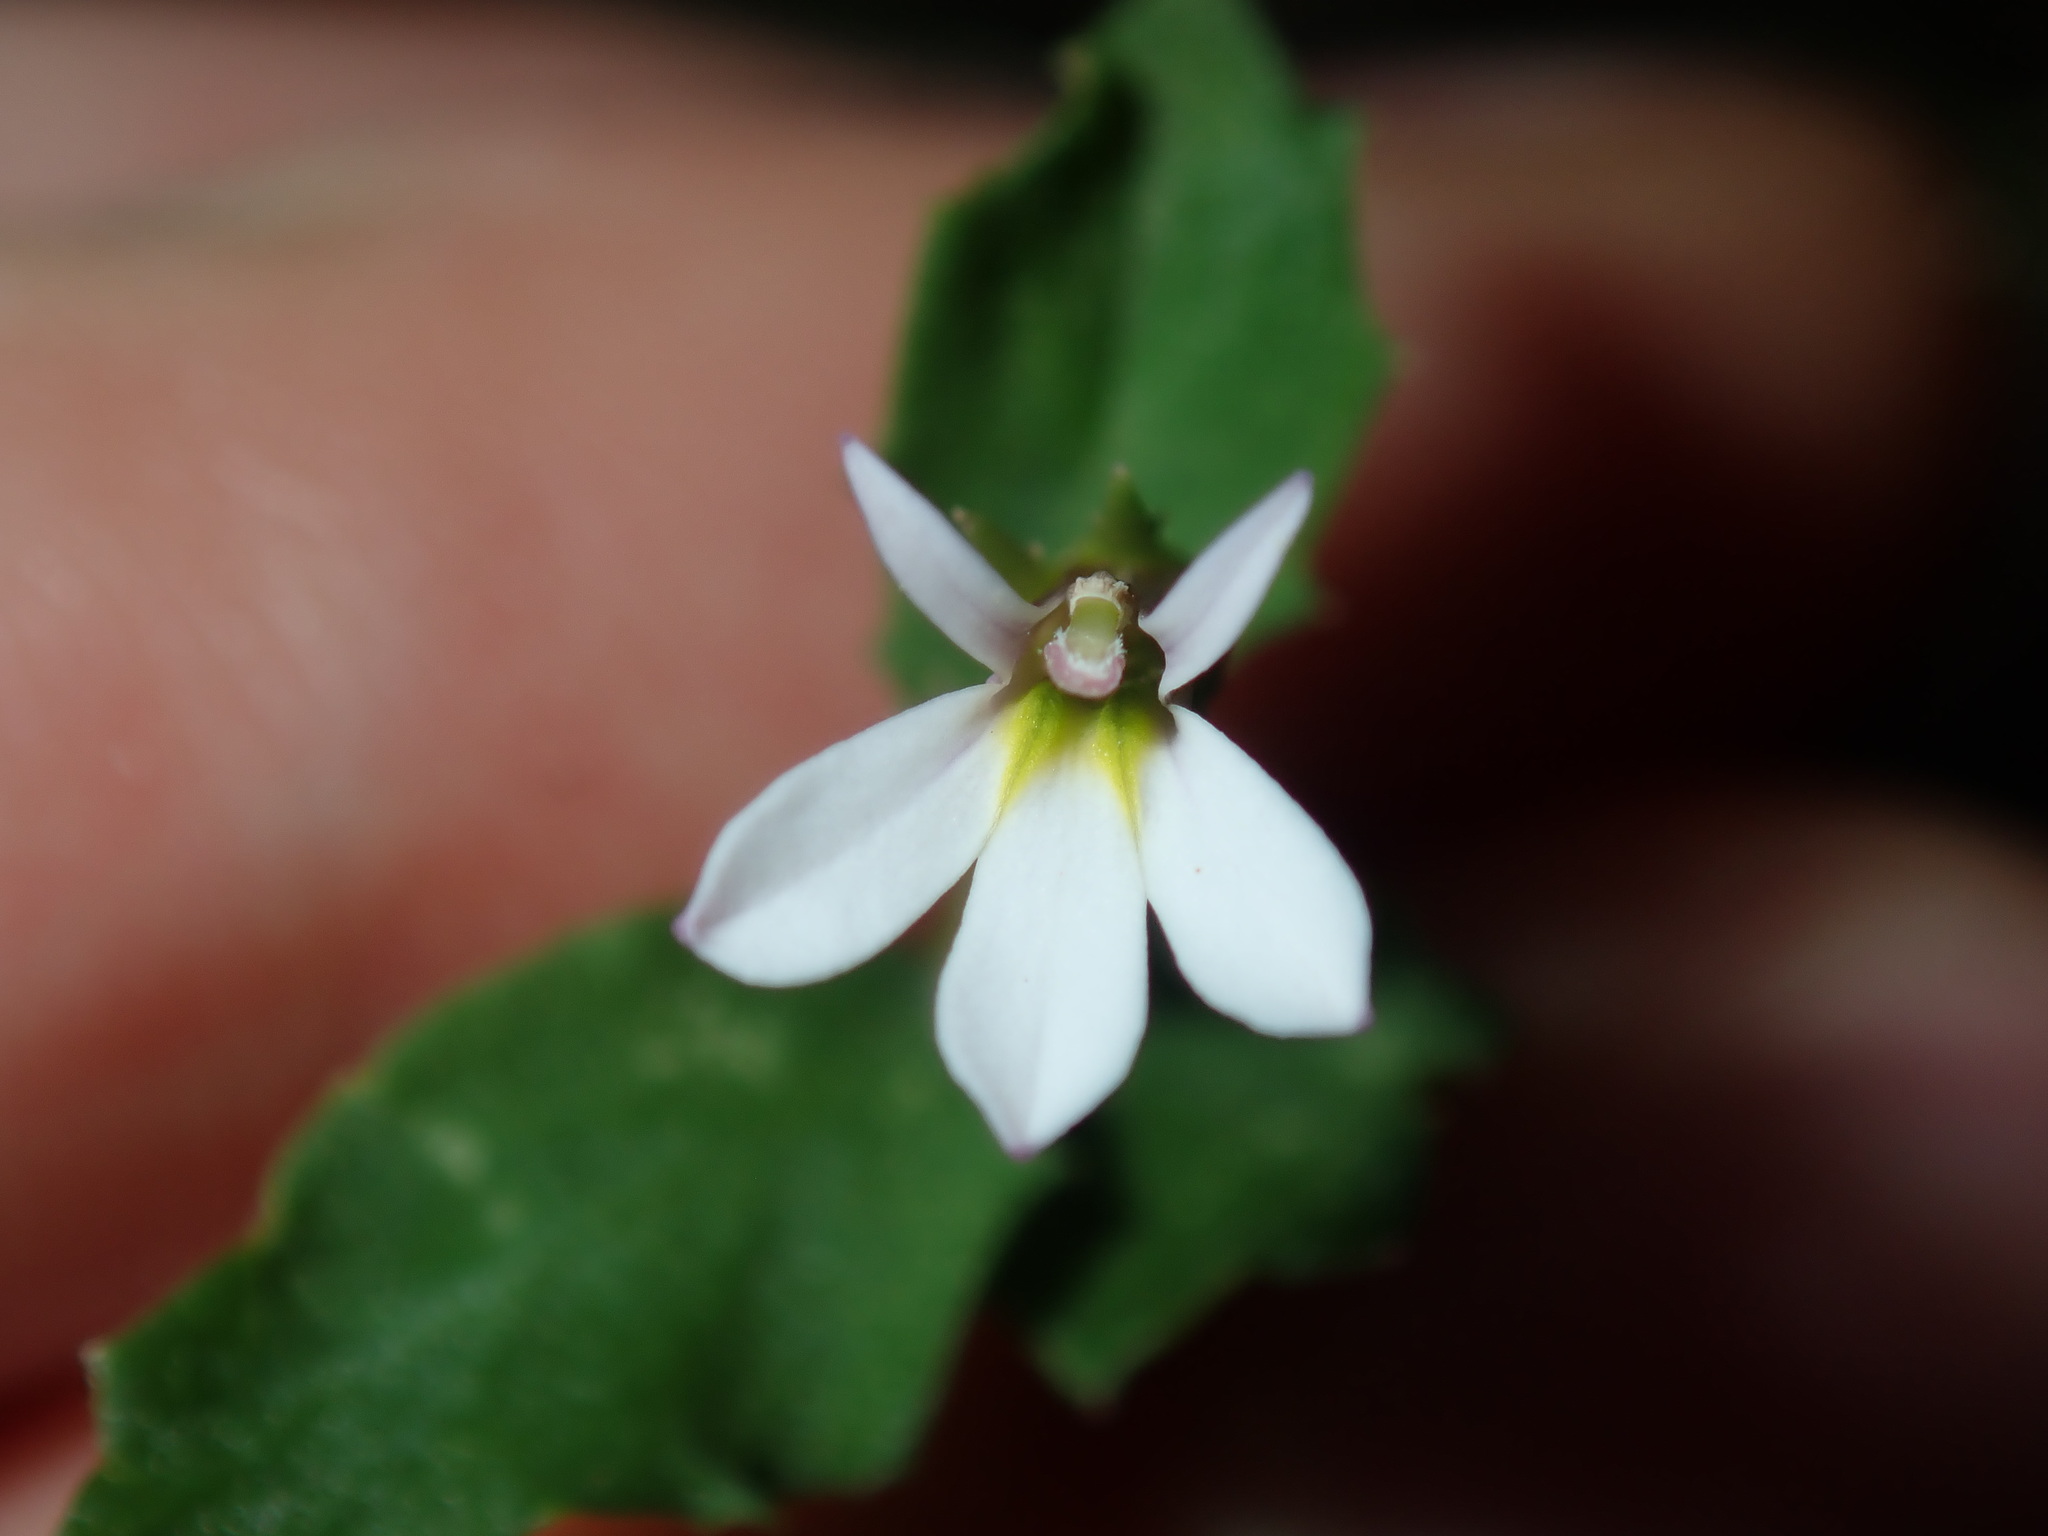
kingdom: Plantae
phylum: Tracheophyta
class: Magnoliopsida
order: Asterales
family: Campanulaceae
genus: Lobelia
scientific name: Lobelia purpurascens
